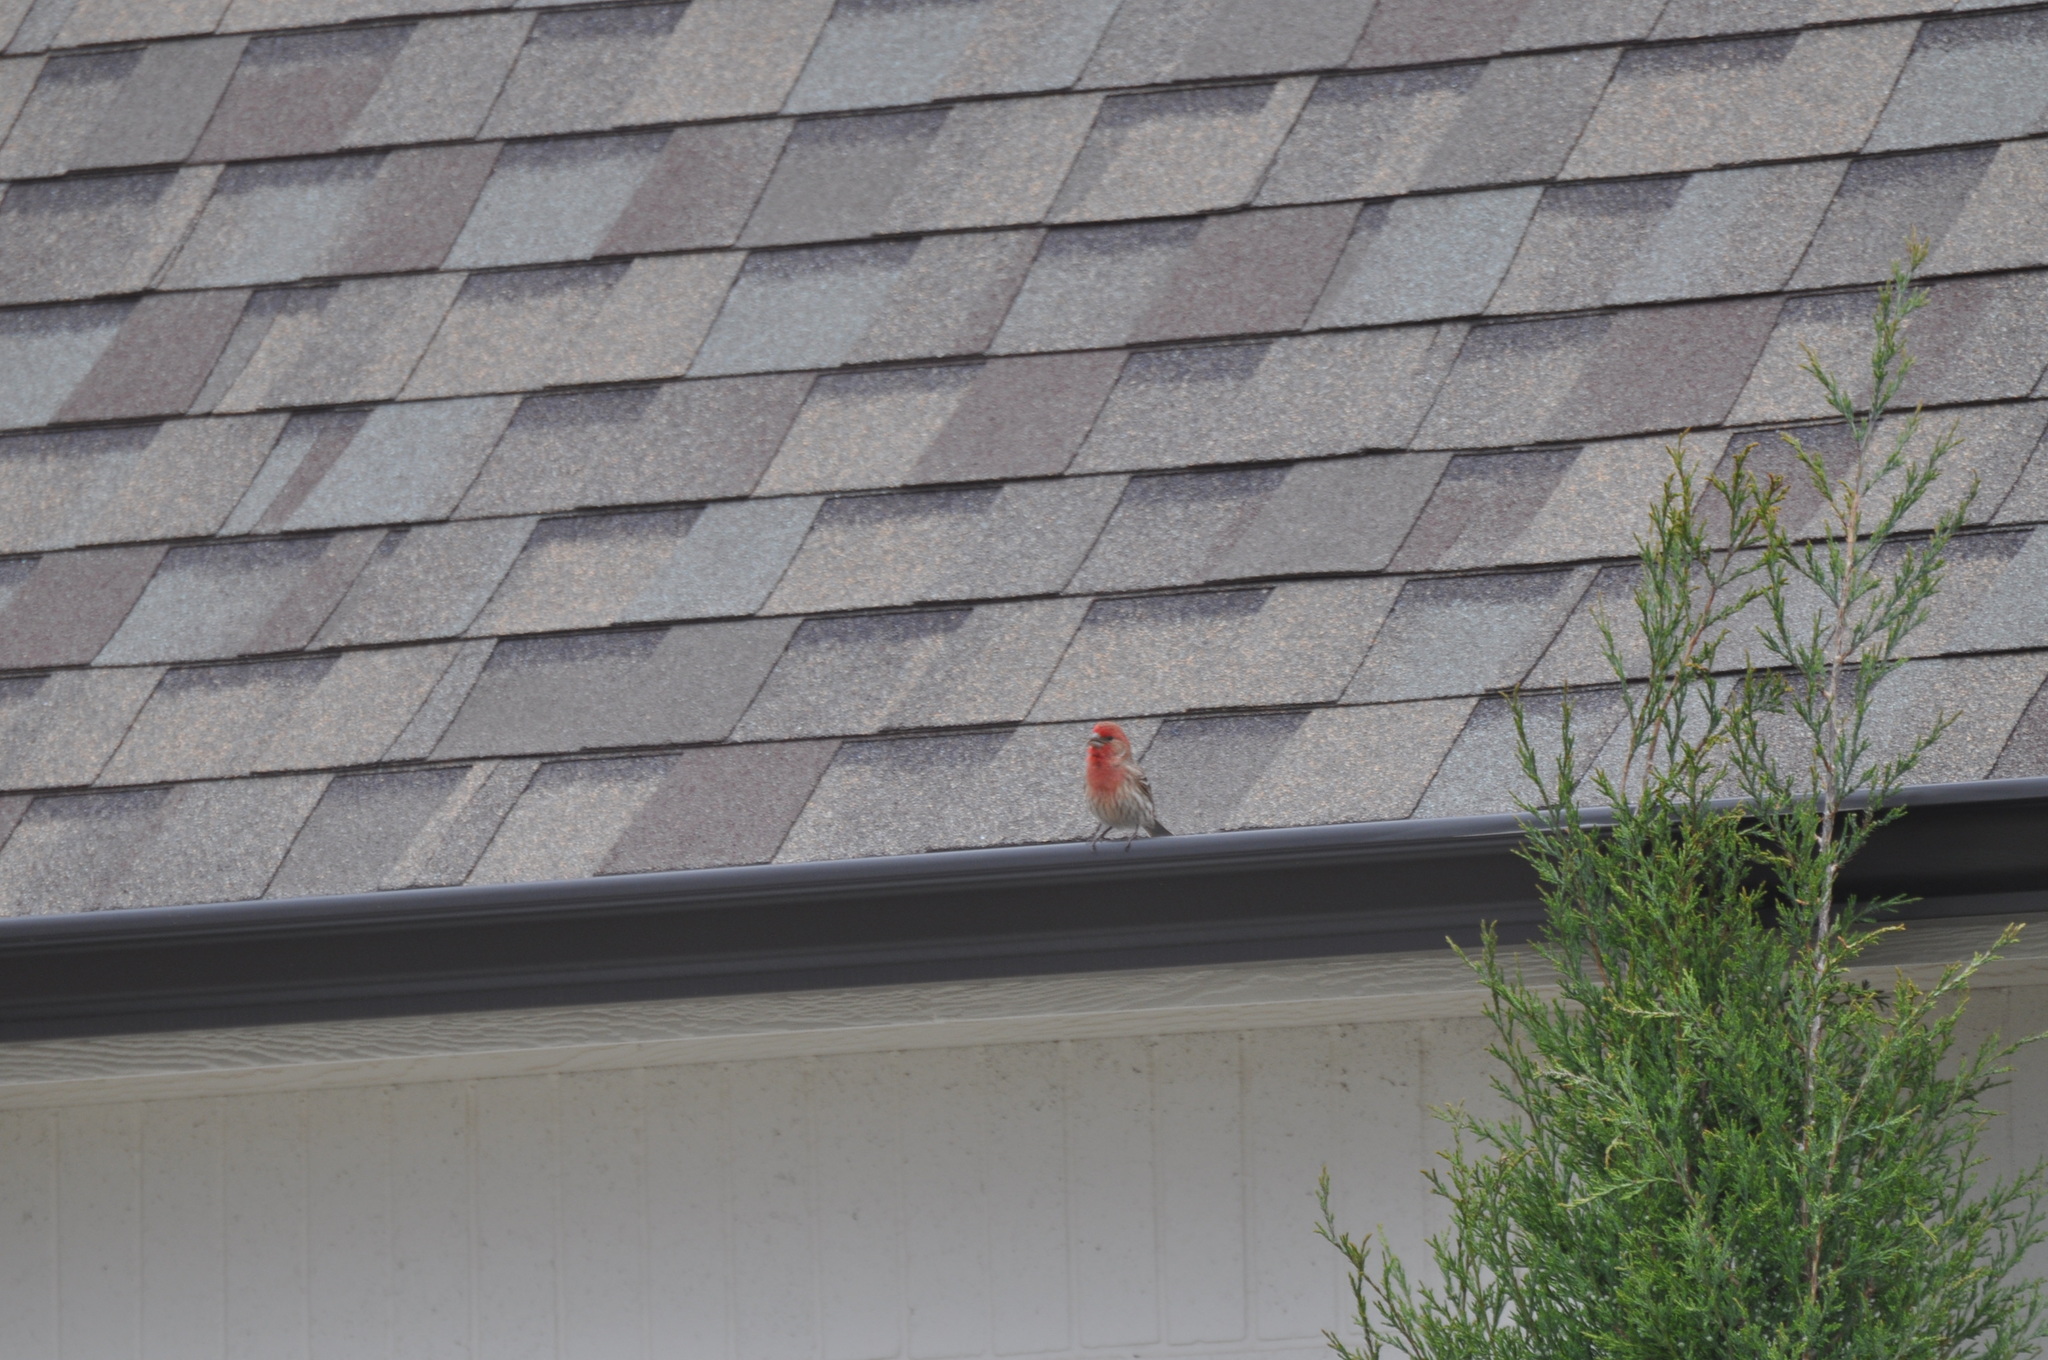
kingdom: Animalia
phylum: Chordata
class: Aves
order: Passeriformes
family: Fringillidae
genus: Haemorhous
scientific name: Haemorhous mexicanus
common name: House finch
